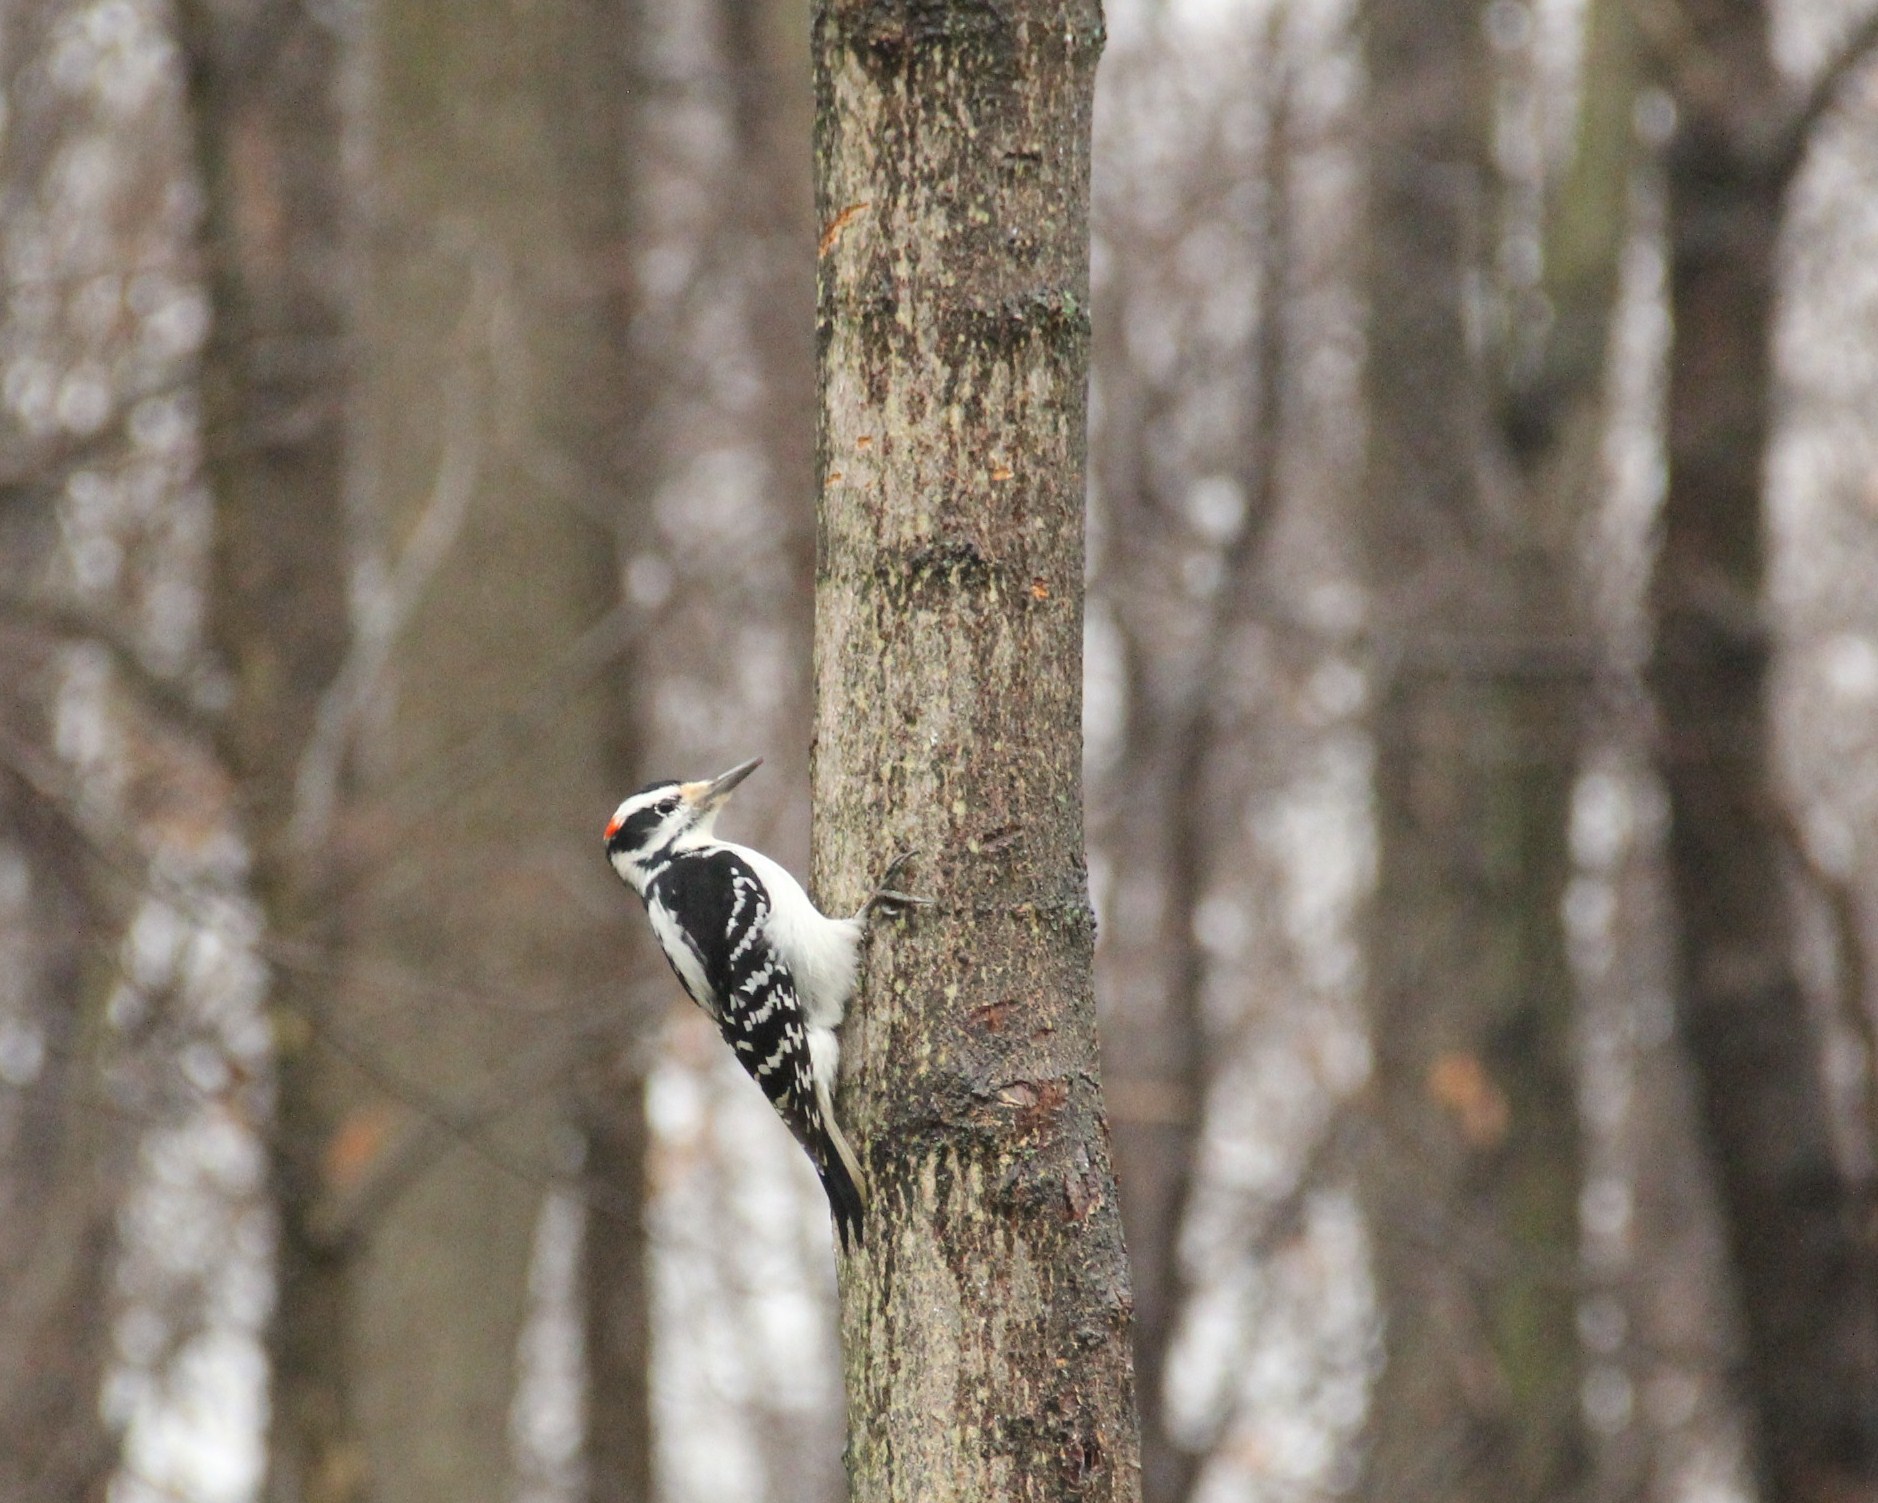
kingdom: Animalia
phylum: Chordata
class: Aves
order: Piciformes
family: Picidae
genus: Leuconotopicus
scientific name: Leuconotopicus villosus
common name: Hairy woodpecker
